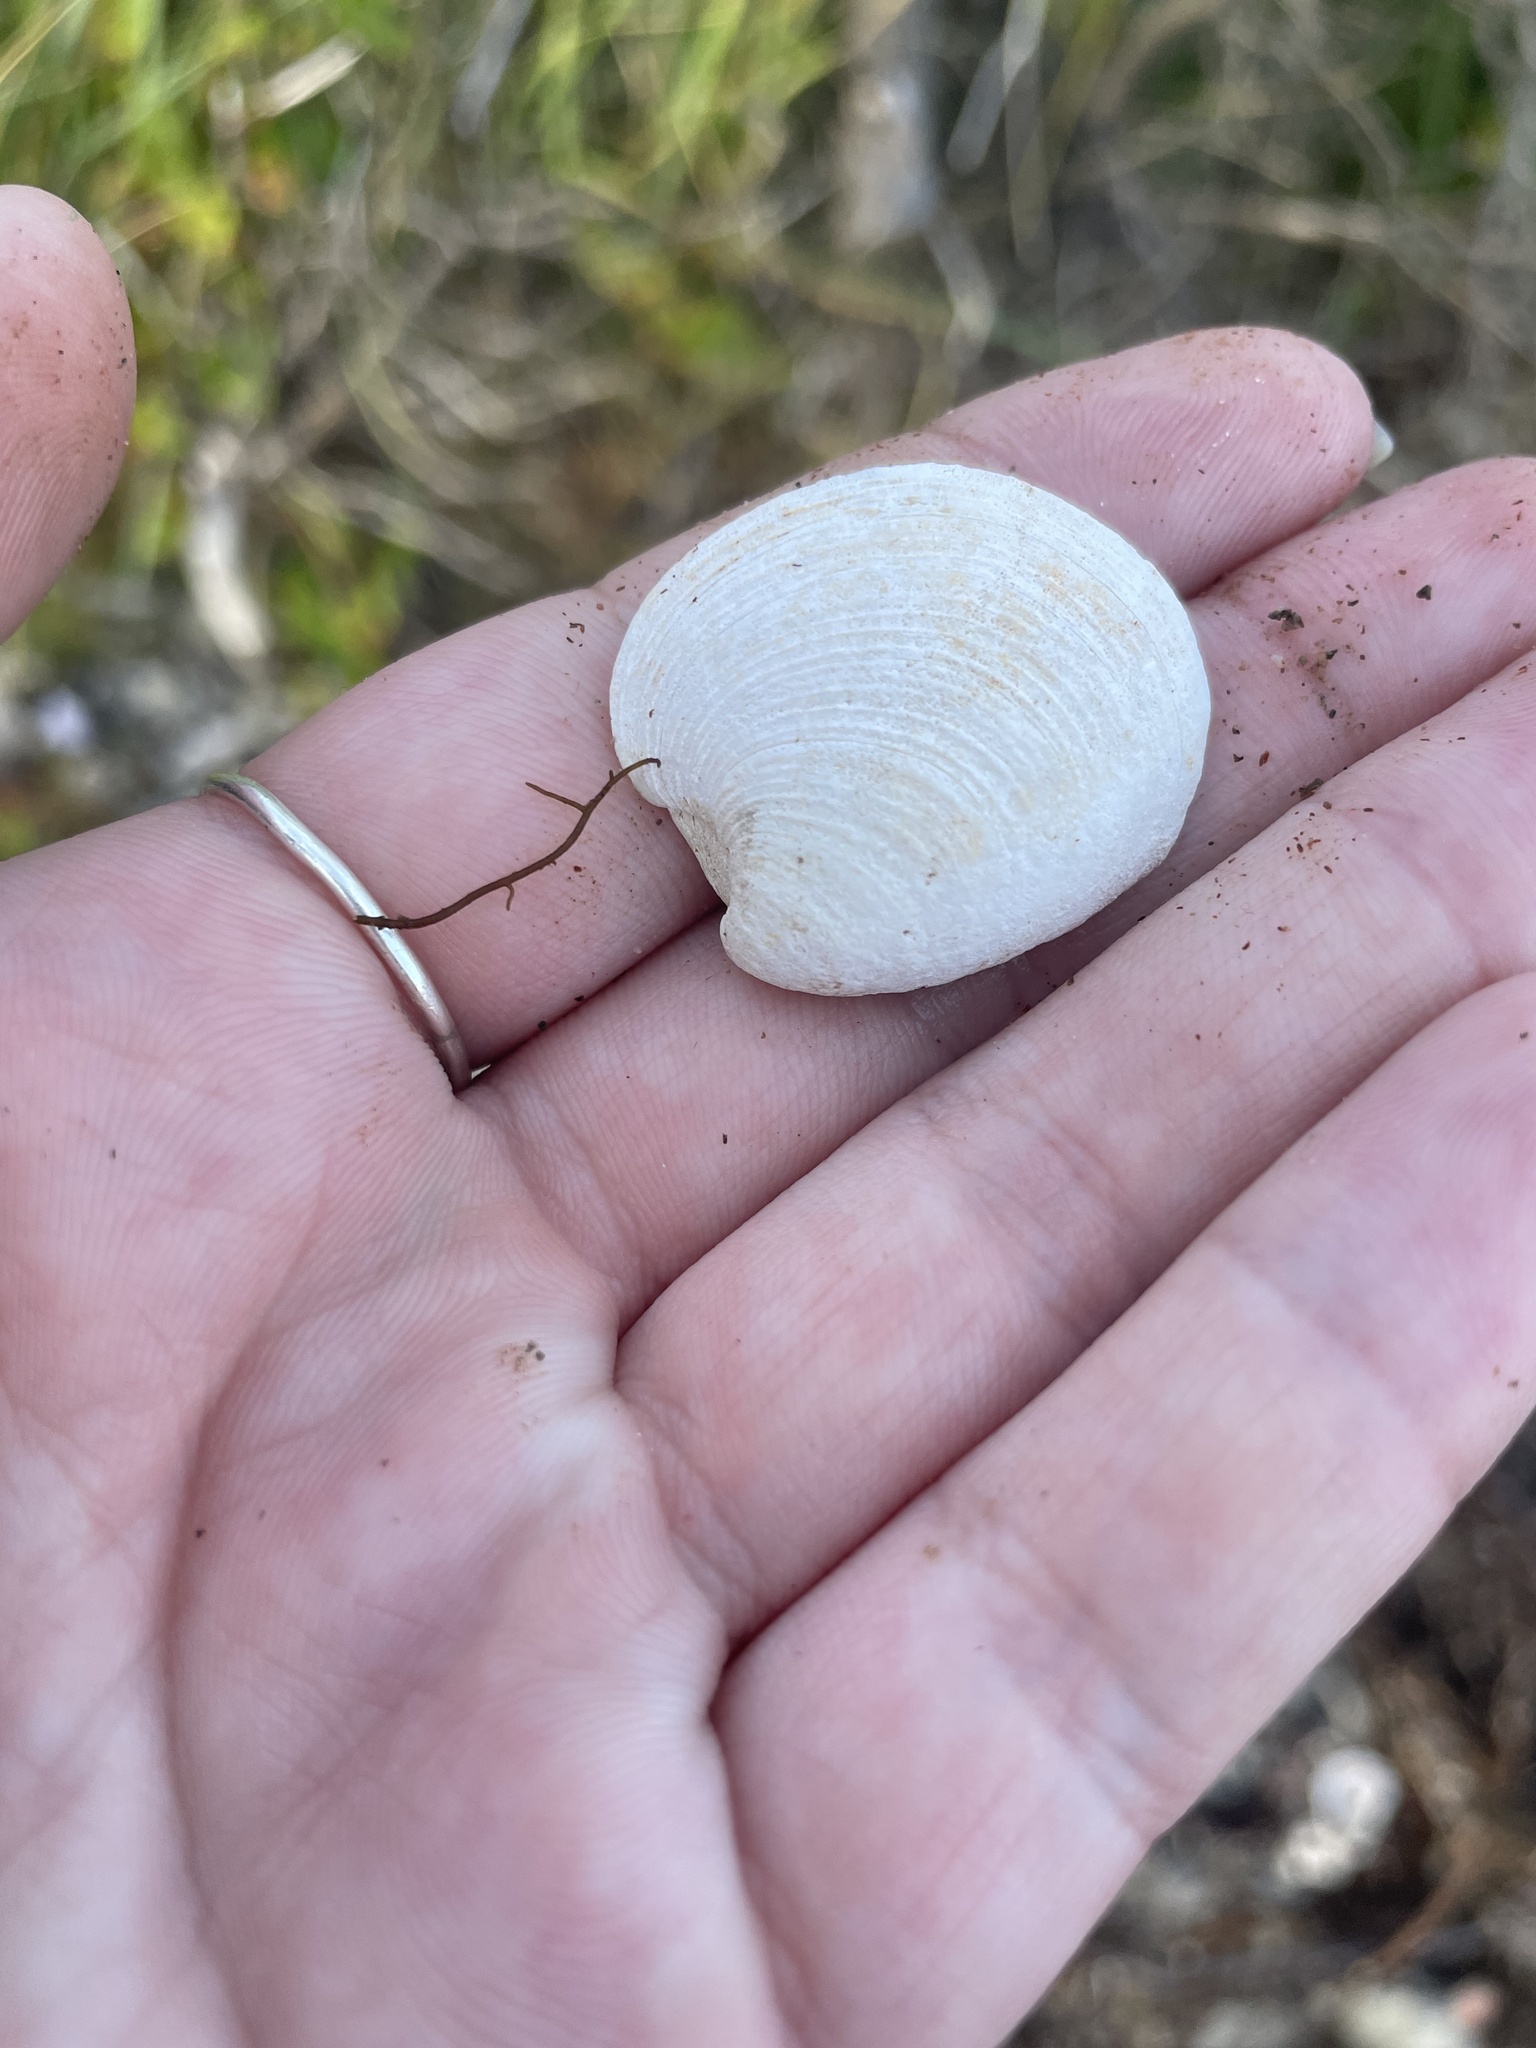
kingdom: Animalia
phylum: Mollusca
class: Bivalvia
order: Venerida
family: Veneridae
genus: Mercenaria
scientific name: Mercenaria mercenaria
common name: American hard-shelled clam
